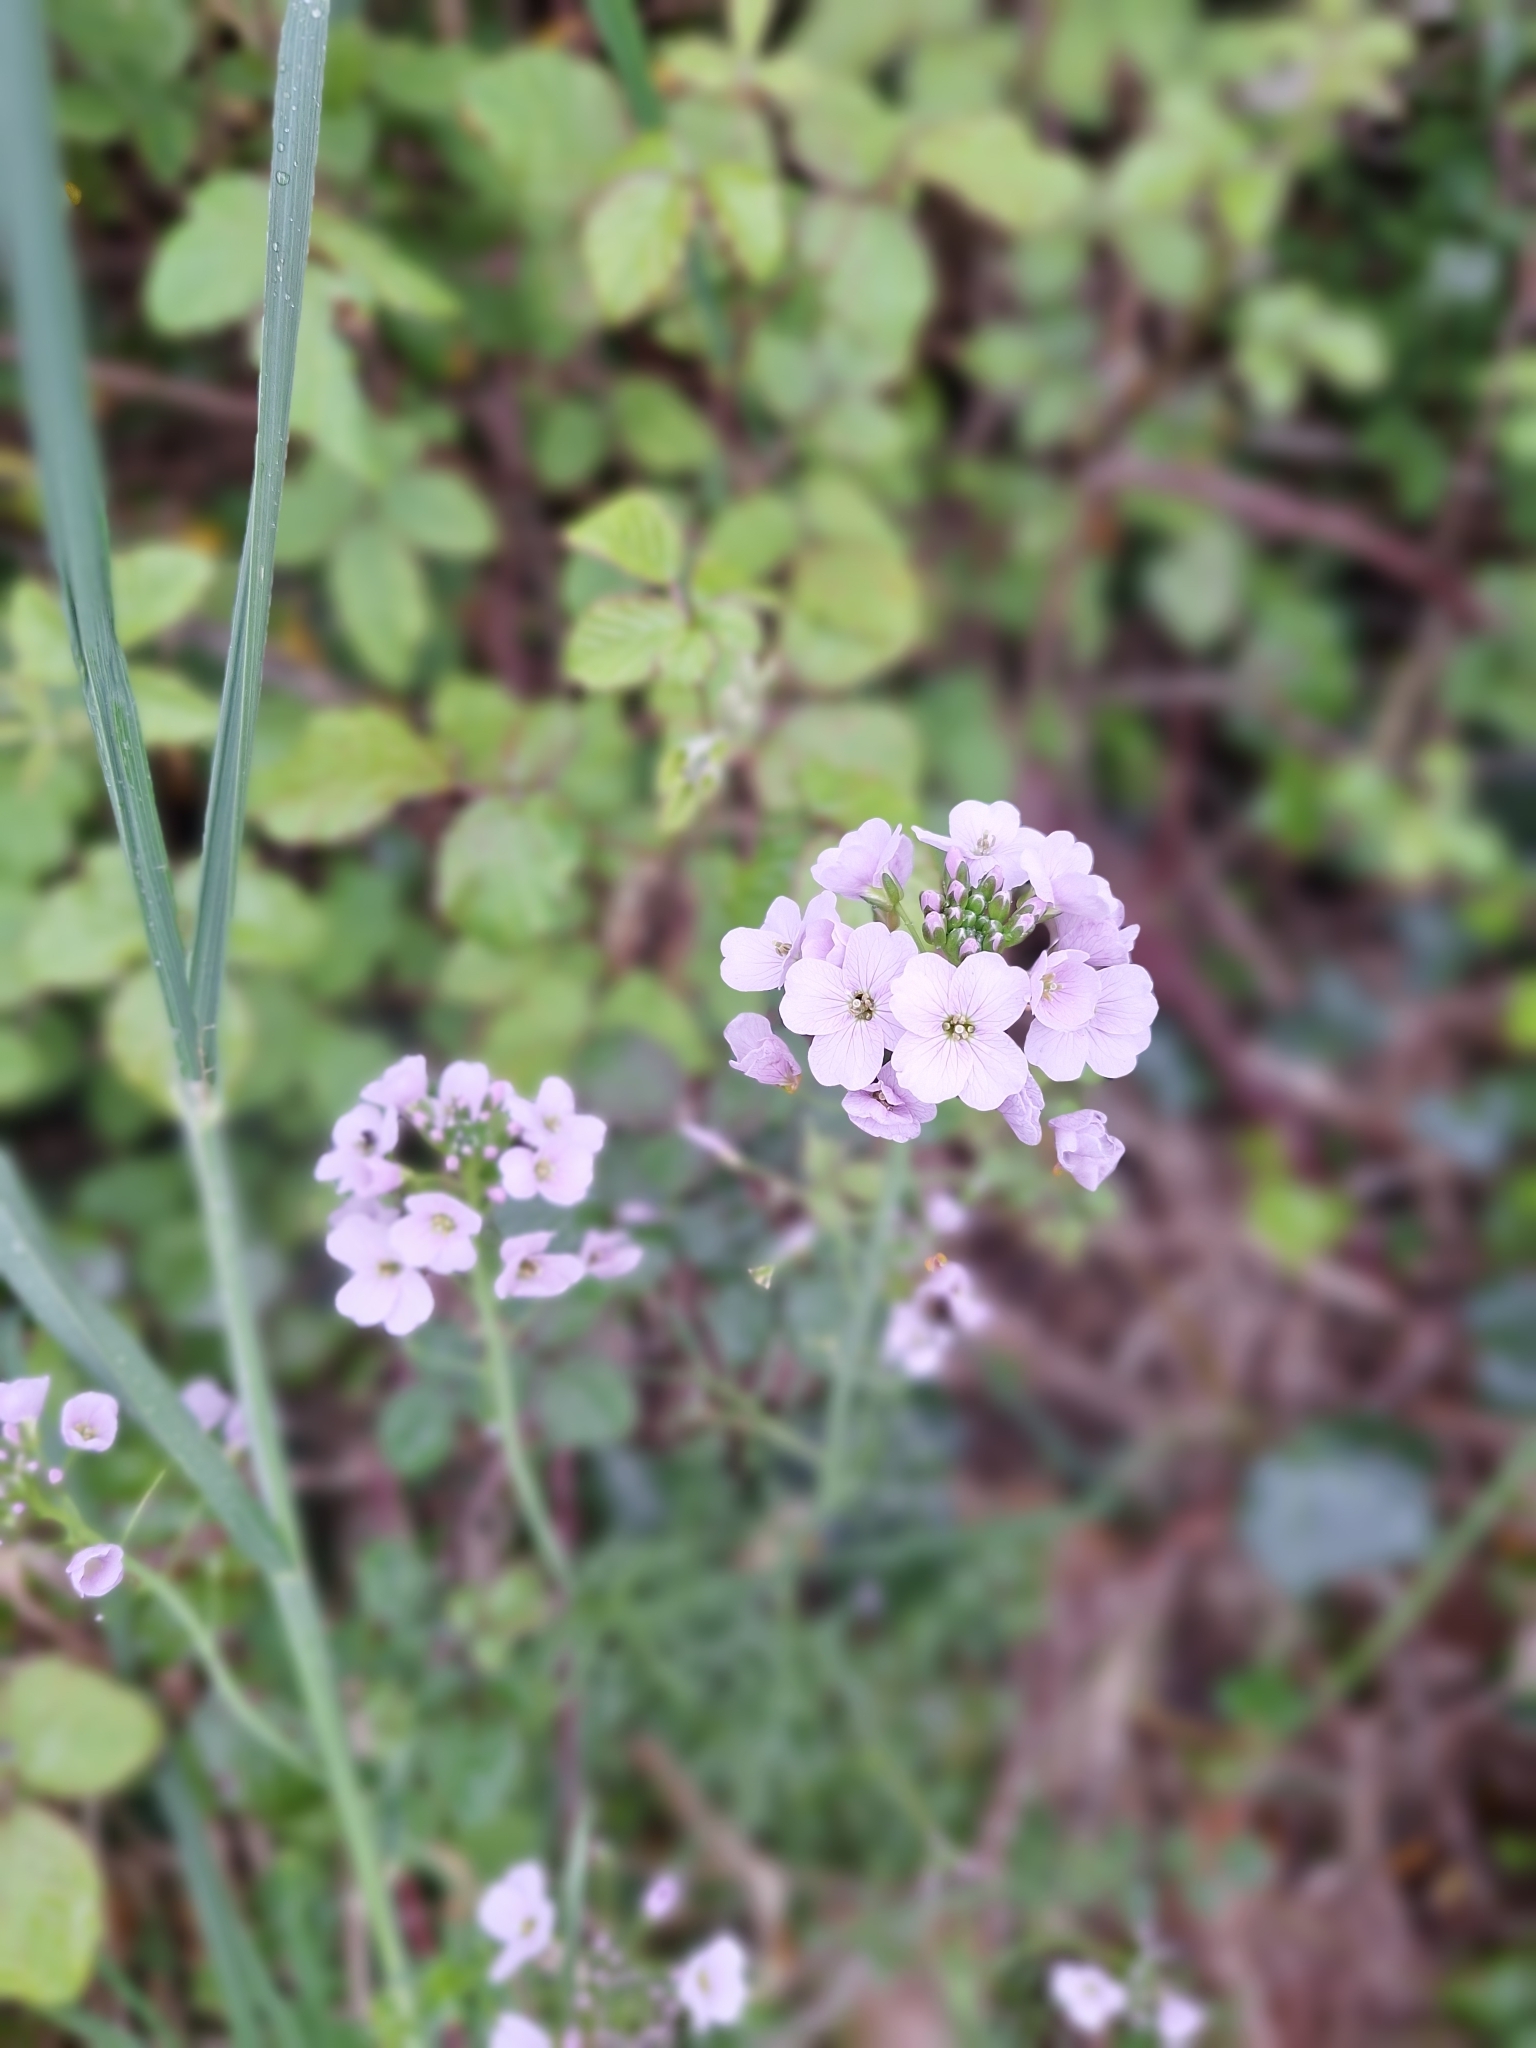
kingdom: Plantae
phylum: Tracheophyta
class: Magnoliopsida
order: Brassicales
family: Brassicaceae
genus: Cardamine
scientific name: Cardamine pratensis
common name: Cuckoo flower
